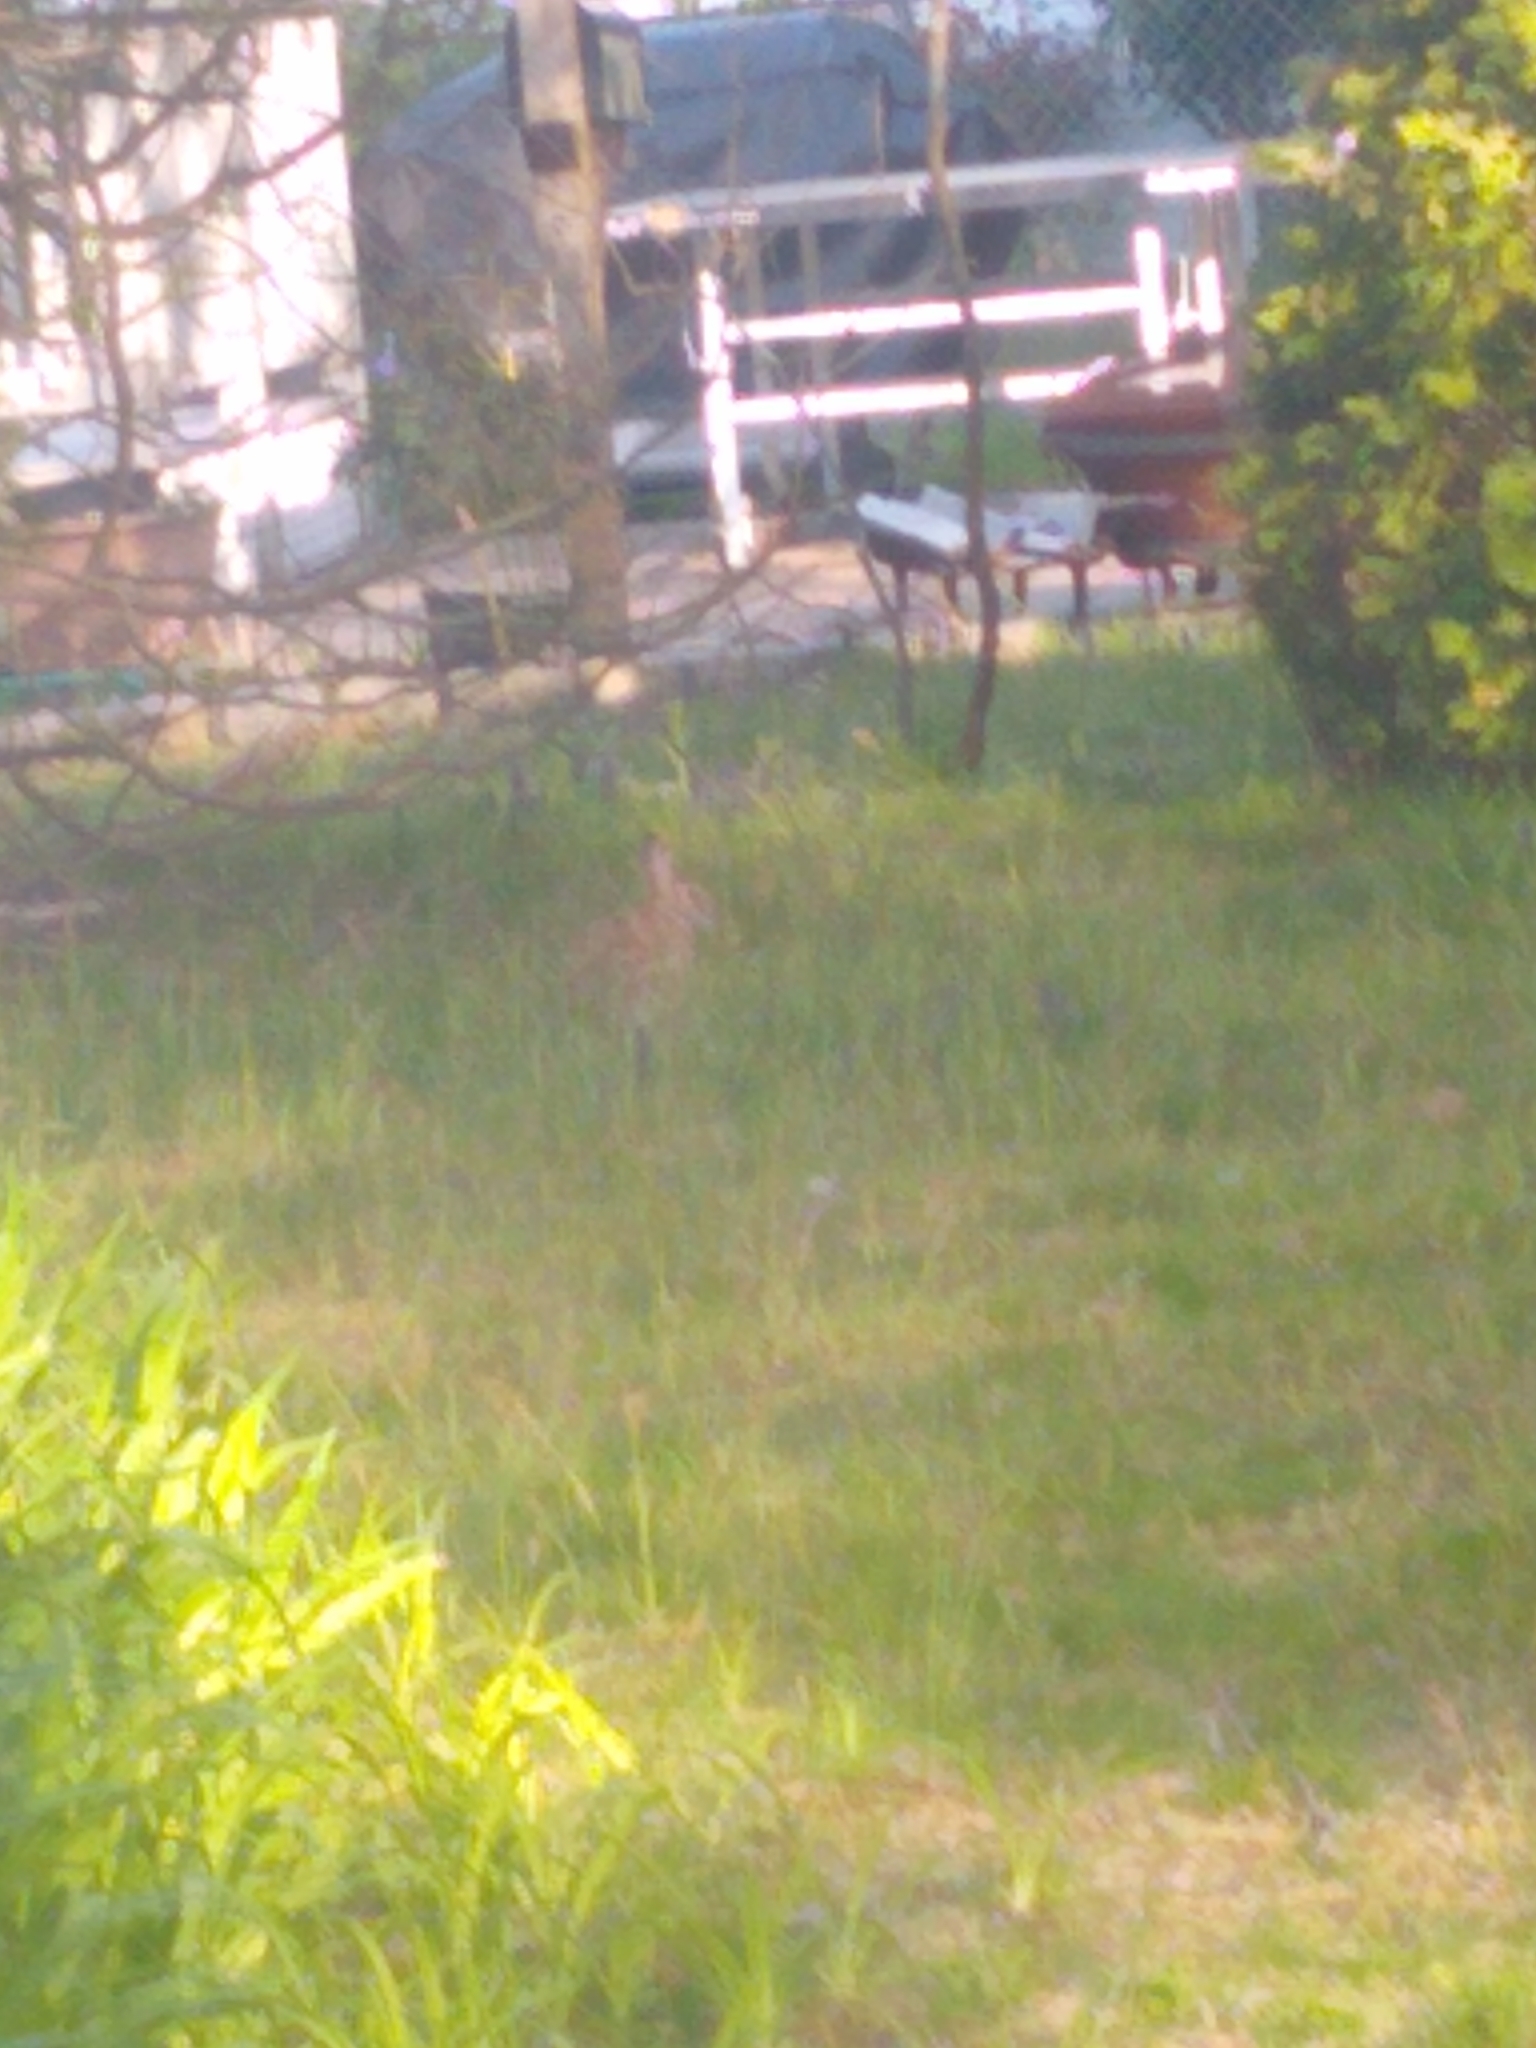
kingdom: Animalia
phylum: Chordata
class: Mammalia
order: Lagomorpha
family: Leporidae
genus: Sylvilagus
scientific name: Sylvilagus floridanus
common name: Eastern cottontail
